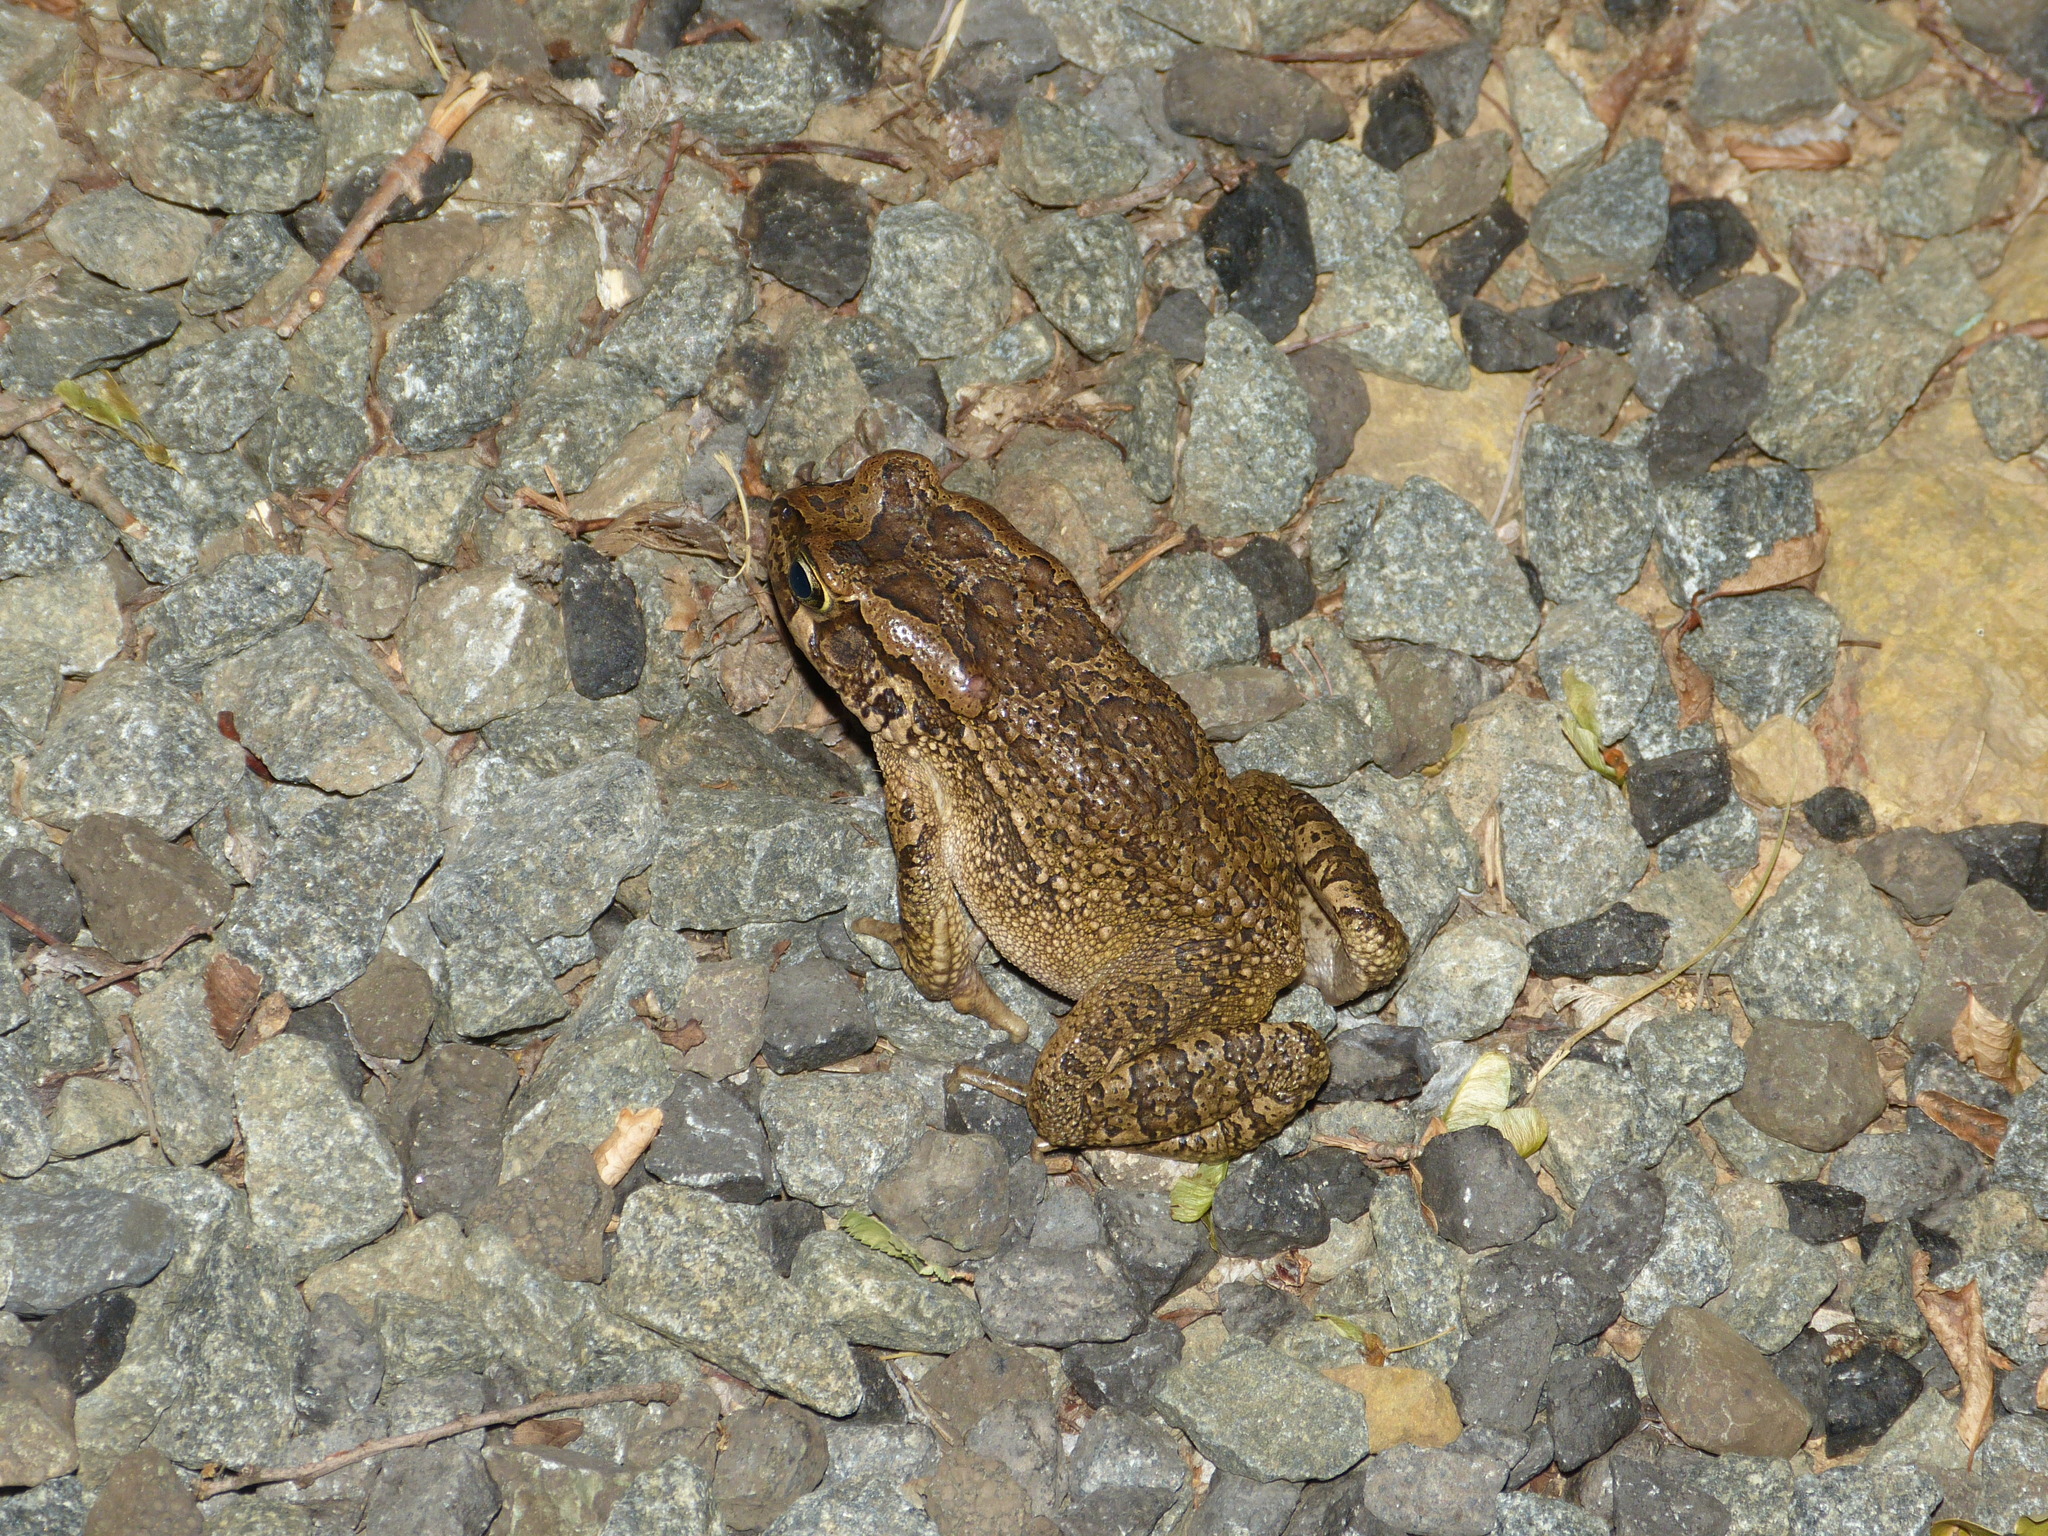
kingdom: Animalia
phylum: Chordata
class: Amphibia
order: Anura
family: Bufonidae
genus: Sclerophrys
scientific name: Sclerophrys capensis
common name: Ranger’s toad
